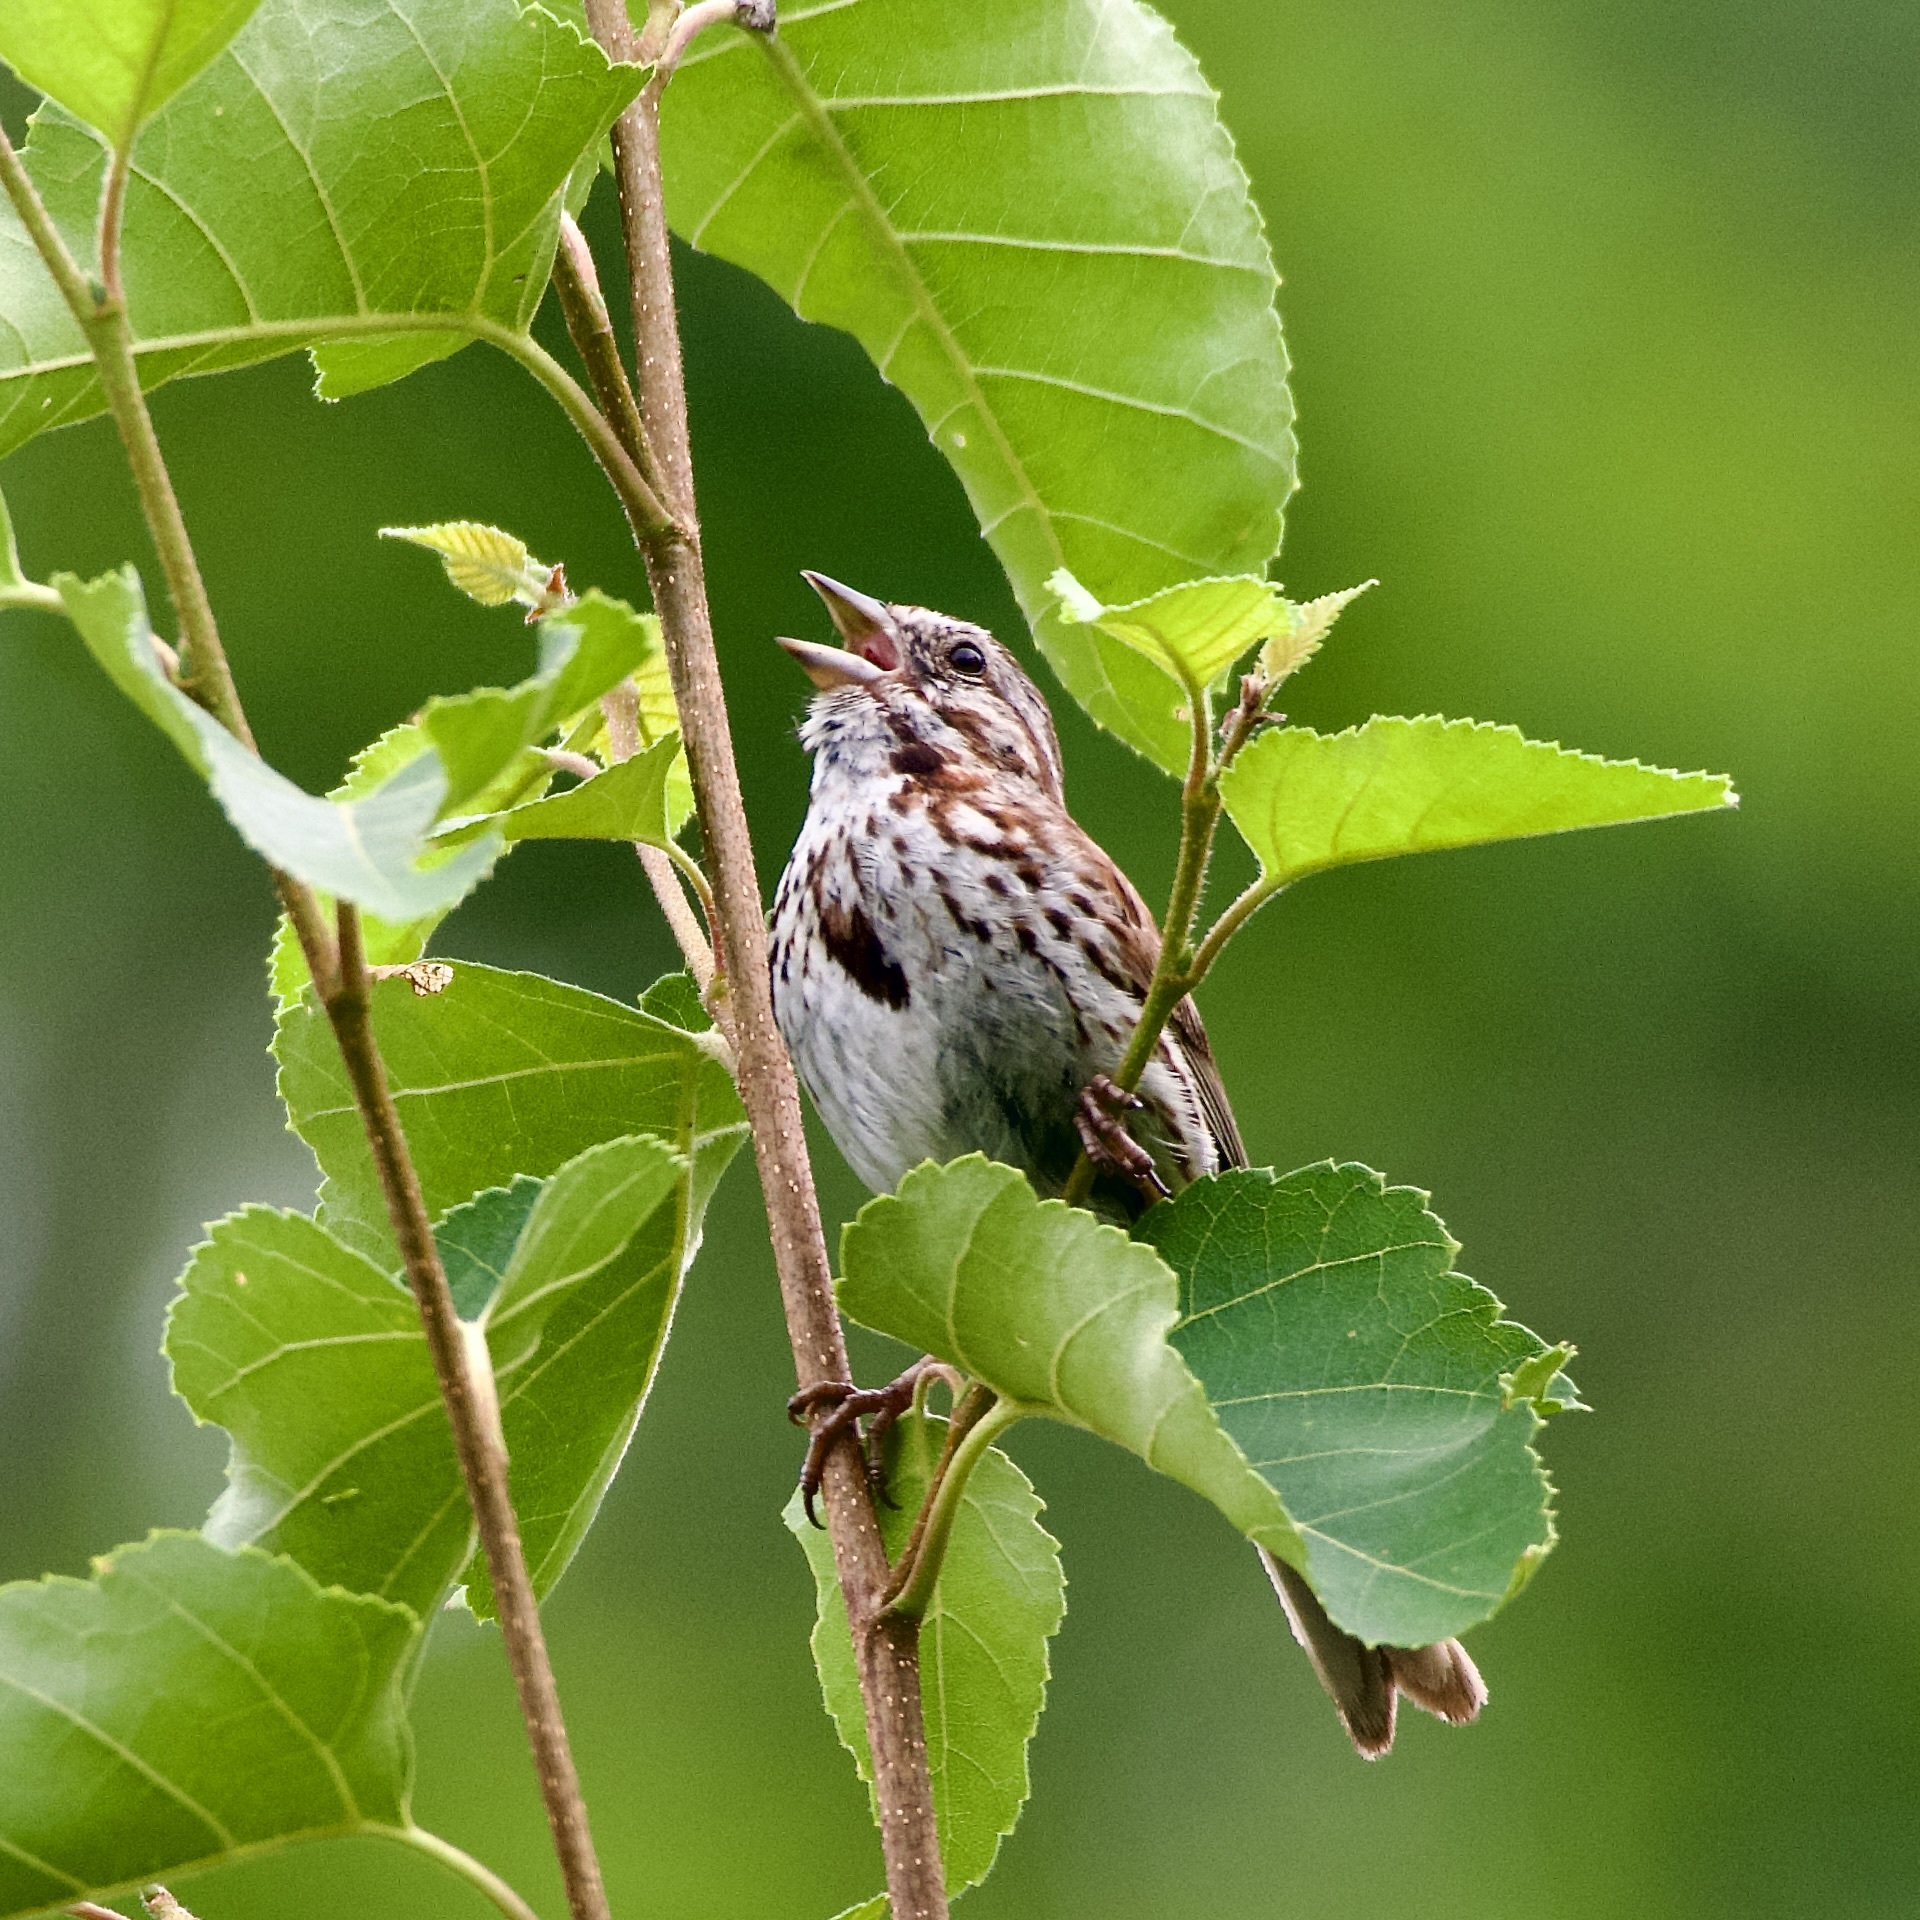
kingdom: Animalia
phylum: Chordata
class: Aves
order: Passeriformes
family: Passerellidae
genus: Melospiza
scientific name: Melospiza melodia
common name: Song sparrow
